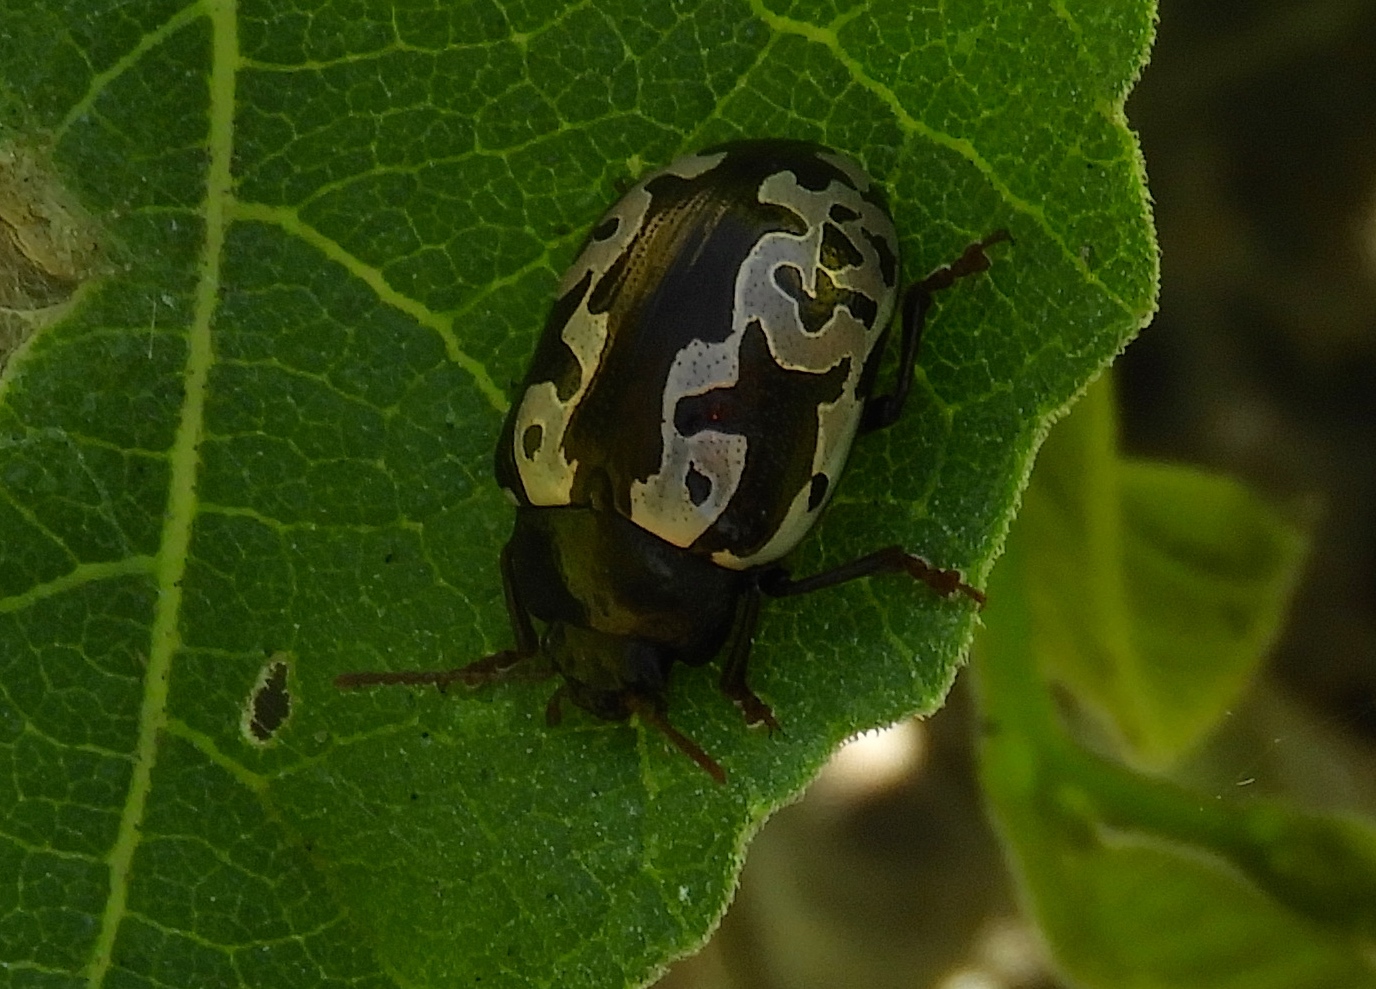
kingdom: Animalia
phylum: Arthropoda
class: Insecta
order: Coleoptera
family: Chrysomelidae
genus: Calligrapha
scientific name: Calligrapha intermedia
